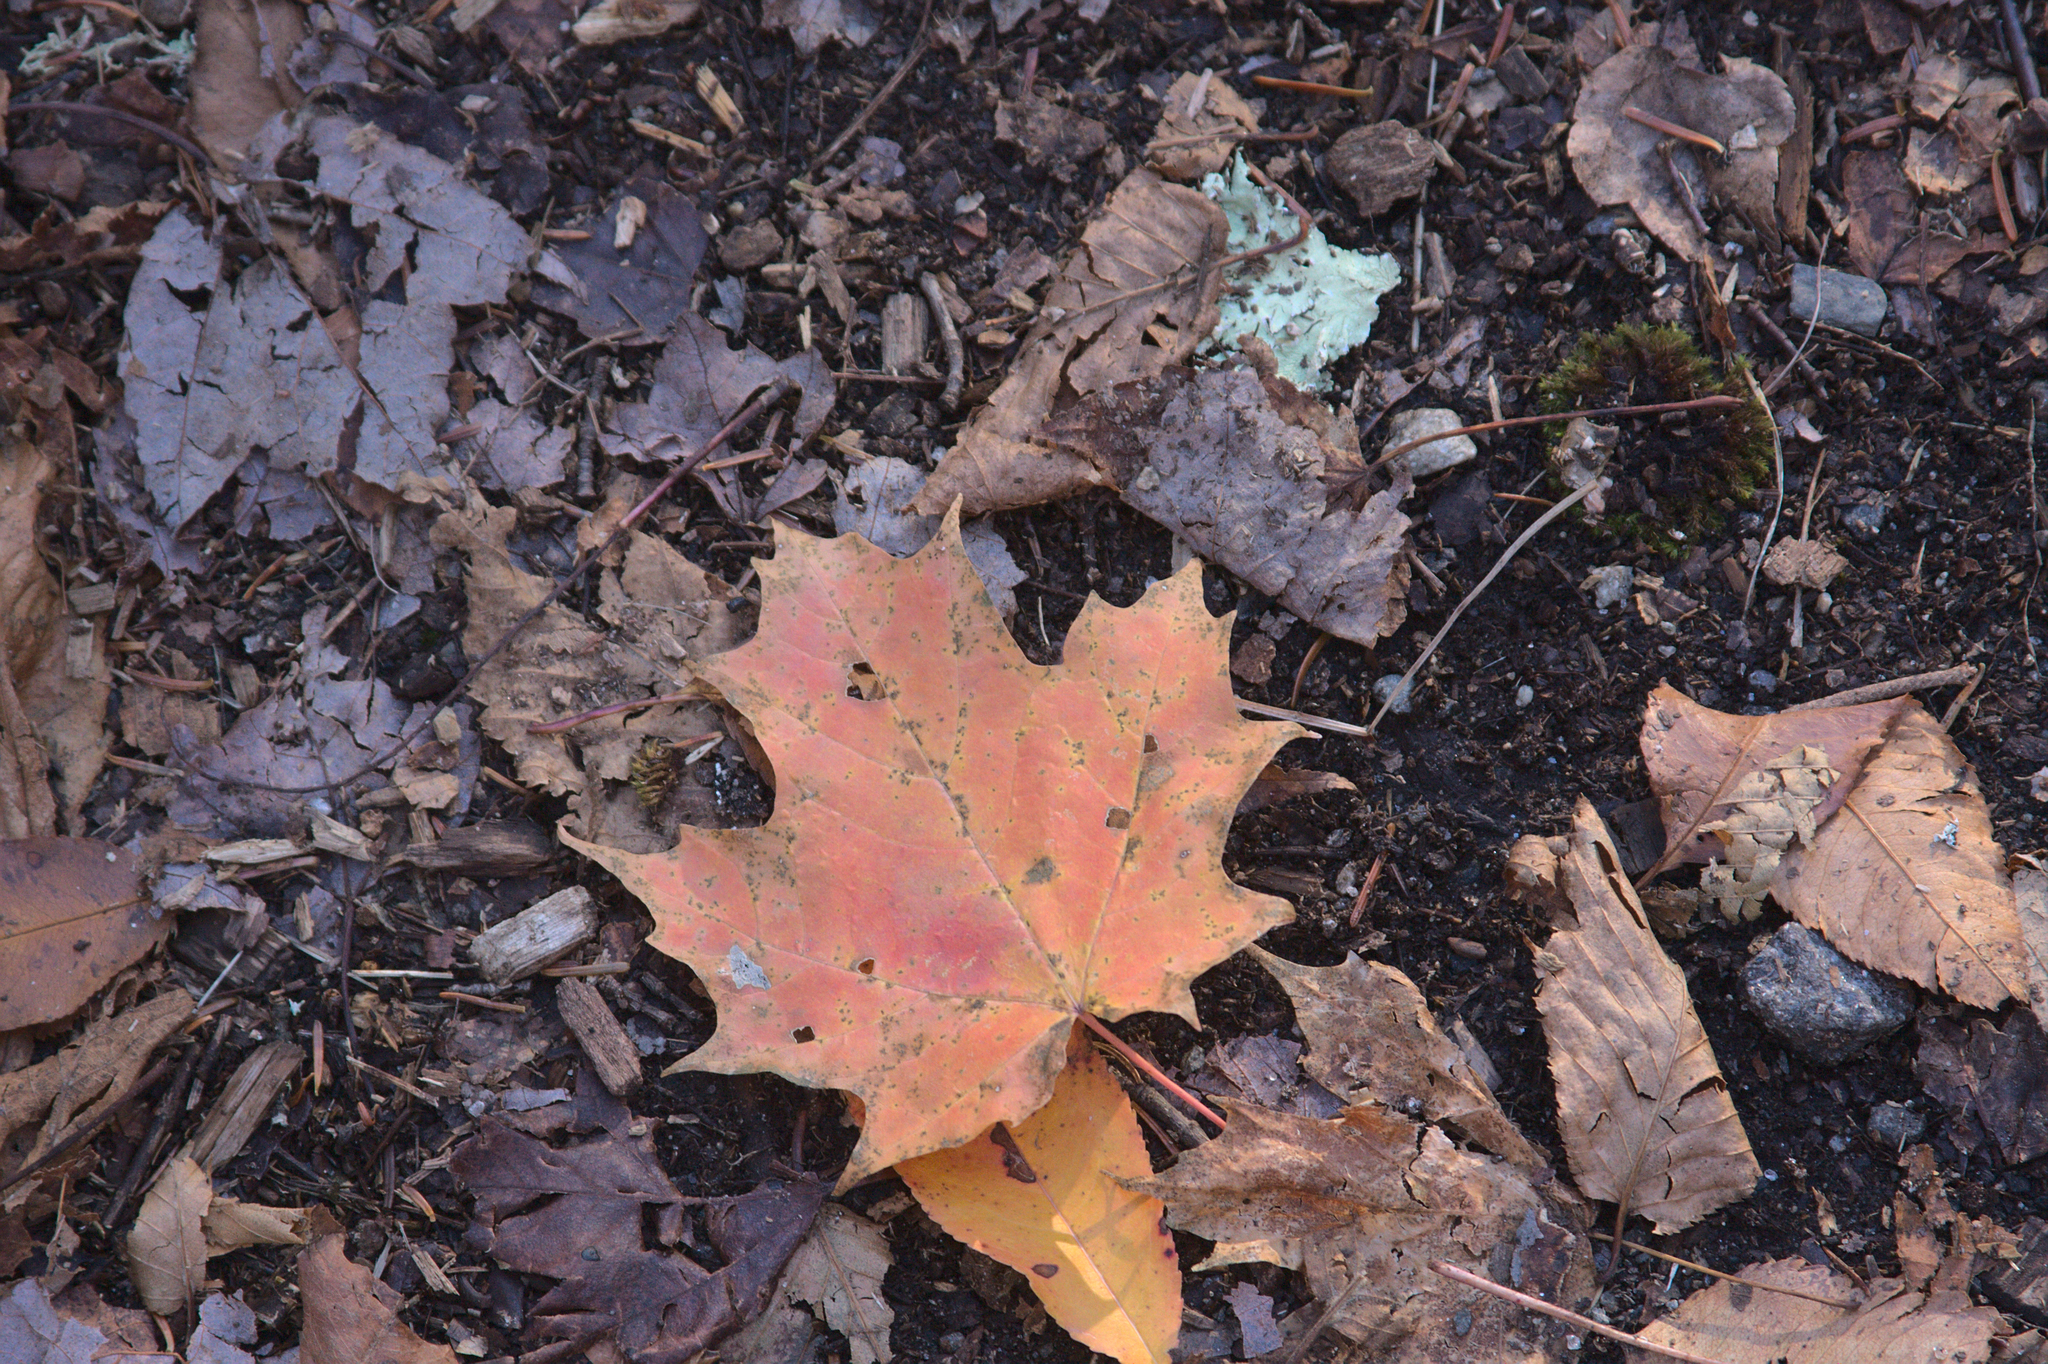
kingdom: Plantae
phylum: Tracheophyta
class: Magnoliopsida
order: Sapindales
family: Sapindaceae
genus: Acer
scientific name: Acer saccharum
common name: Sugar maple
